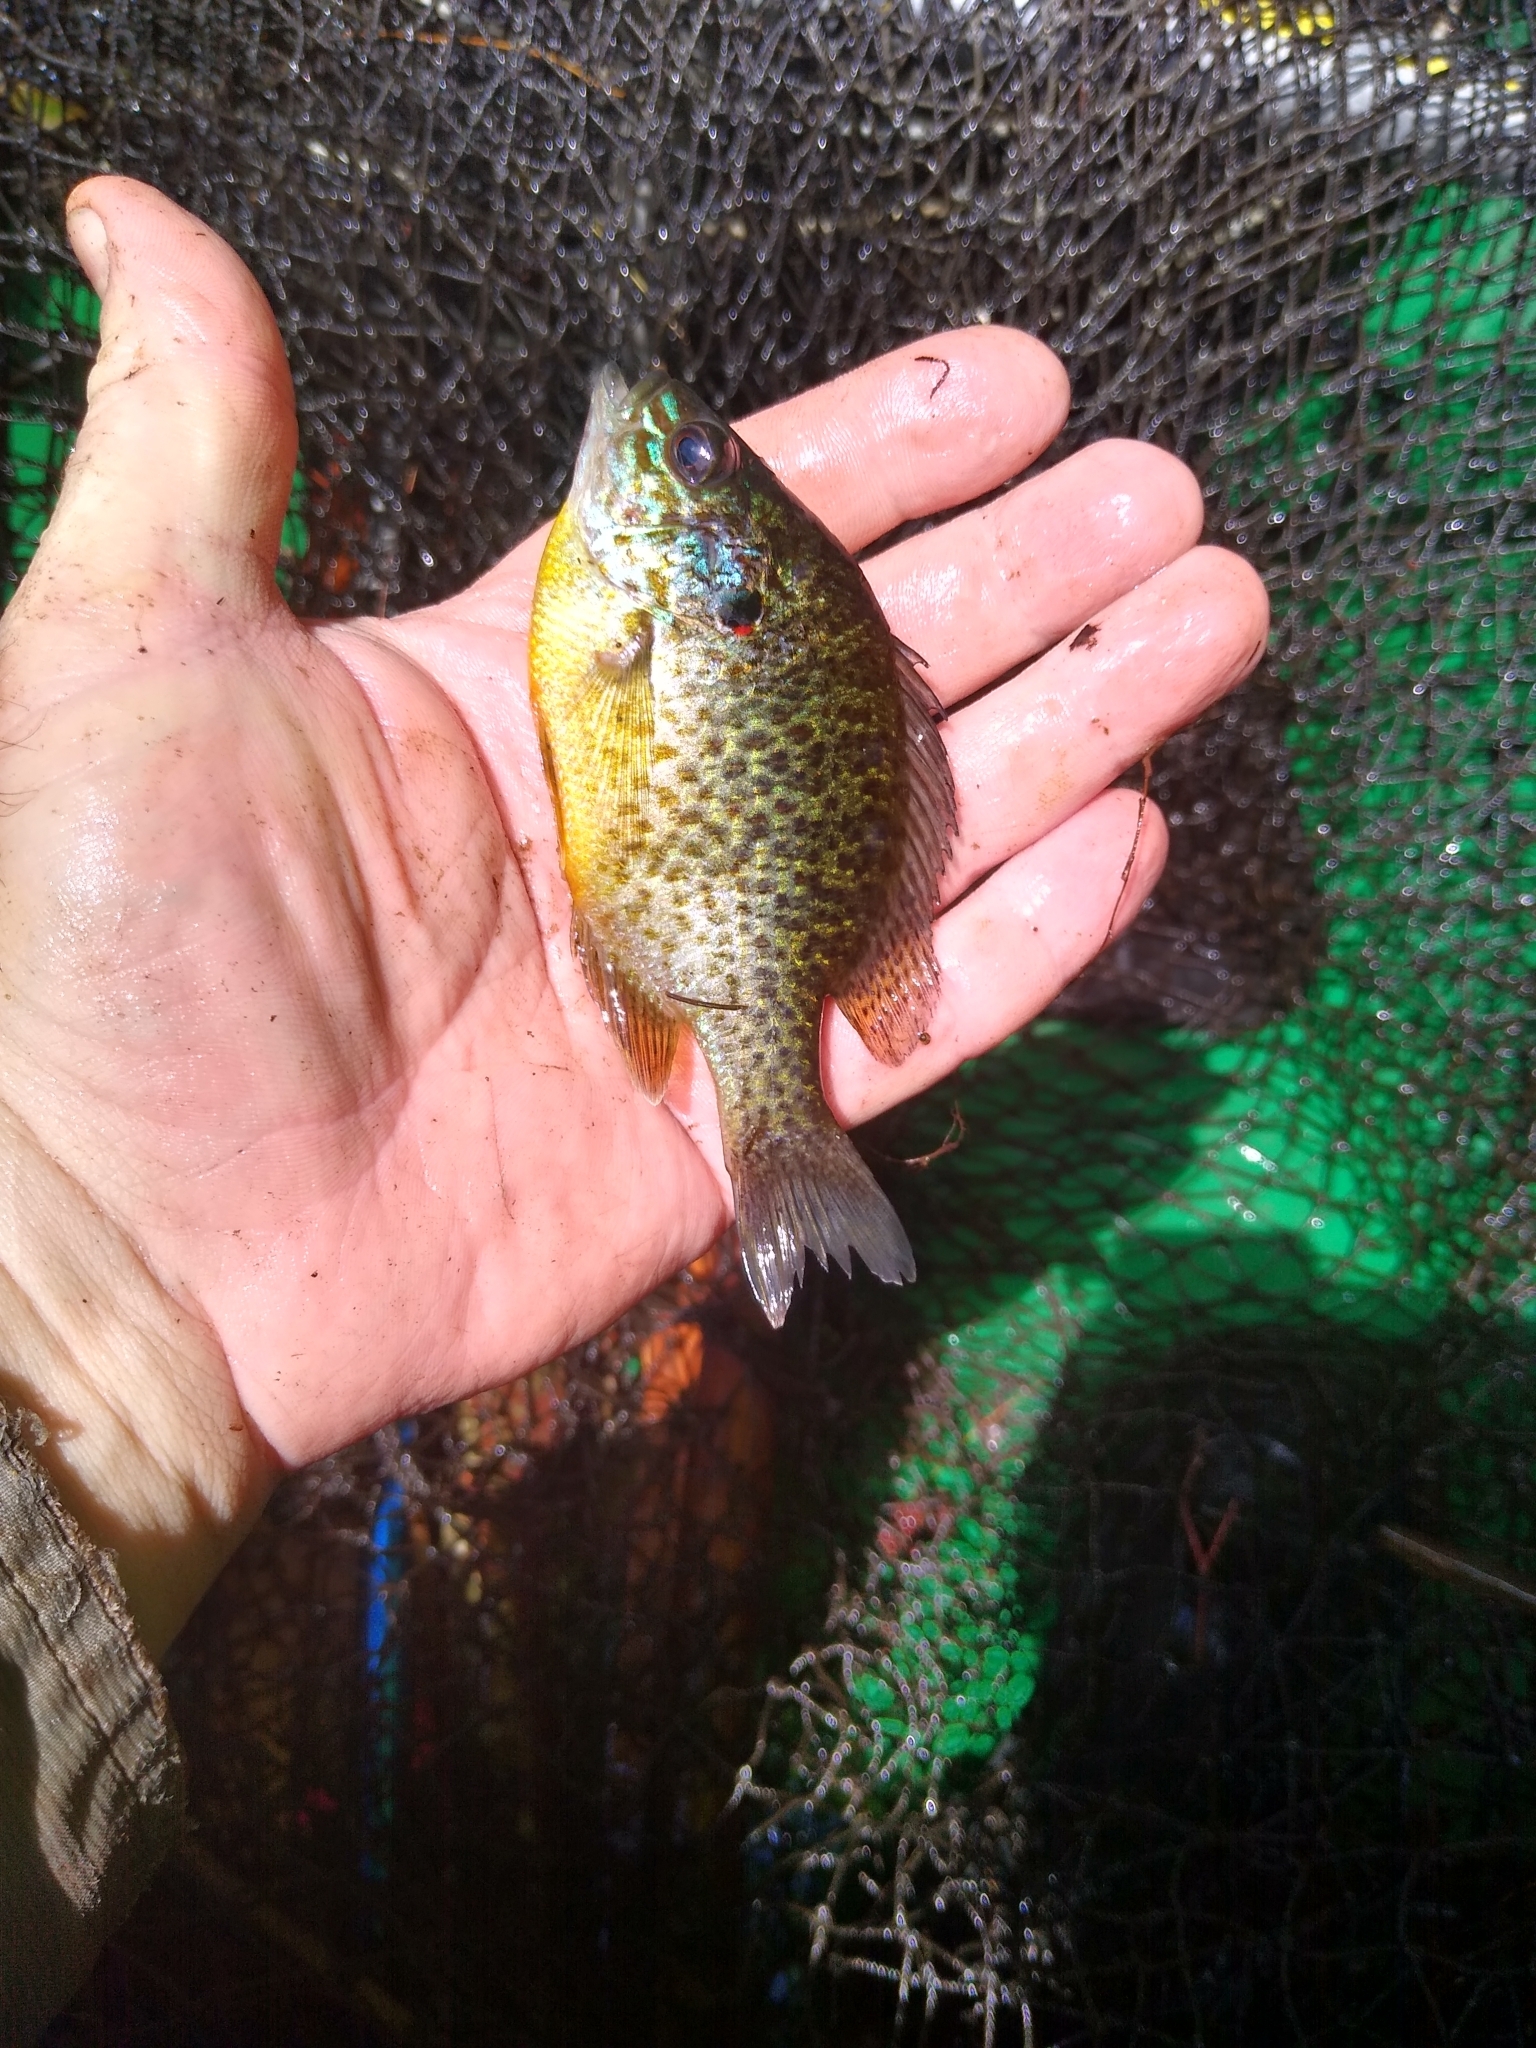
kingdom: Animalia
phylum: Chordata
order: Perciformes
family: Centrarchidae
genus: Lepomis
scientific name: Lepomis gibbosus
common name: Pumpkinseed
